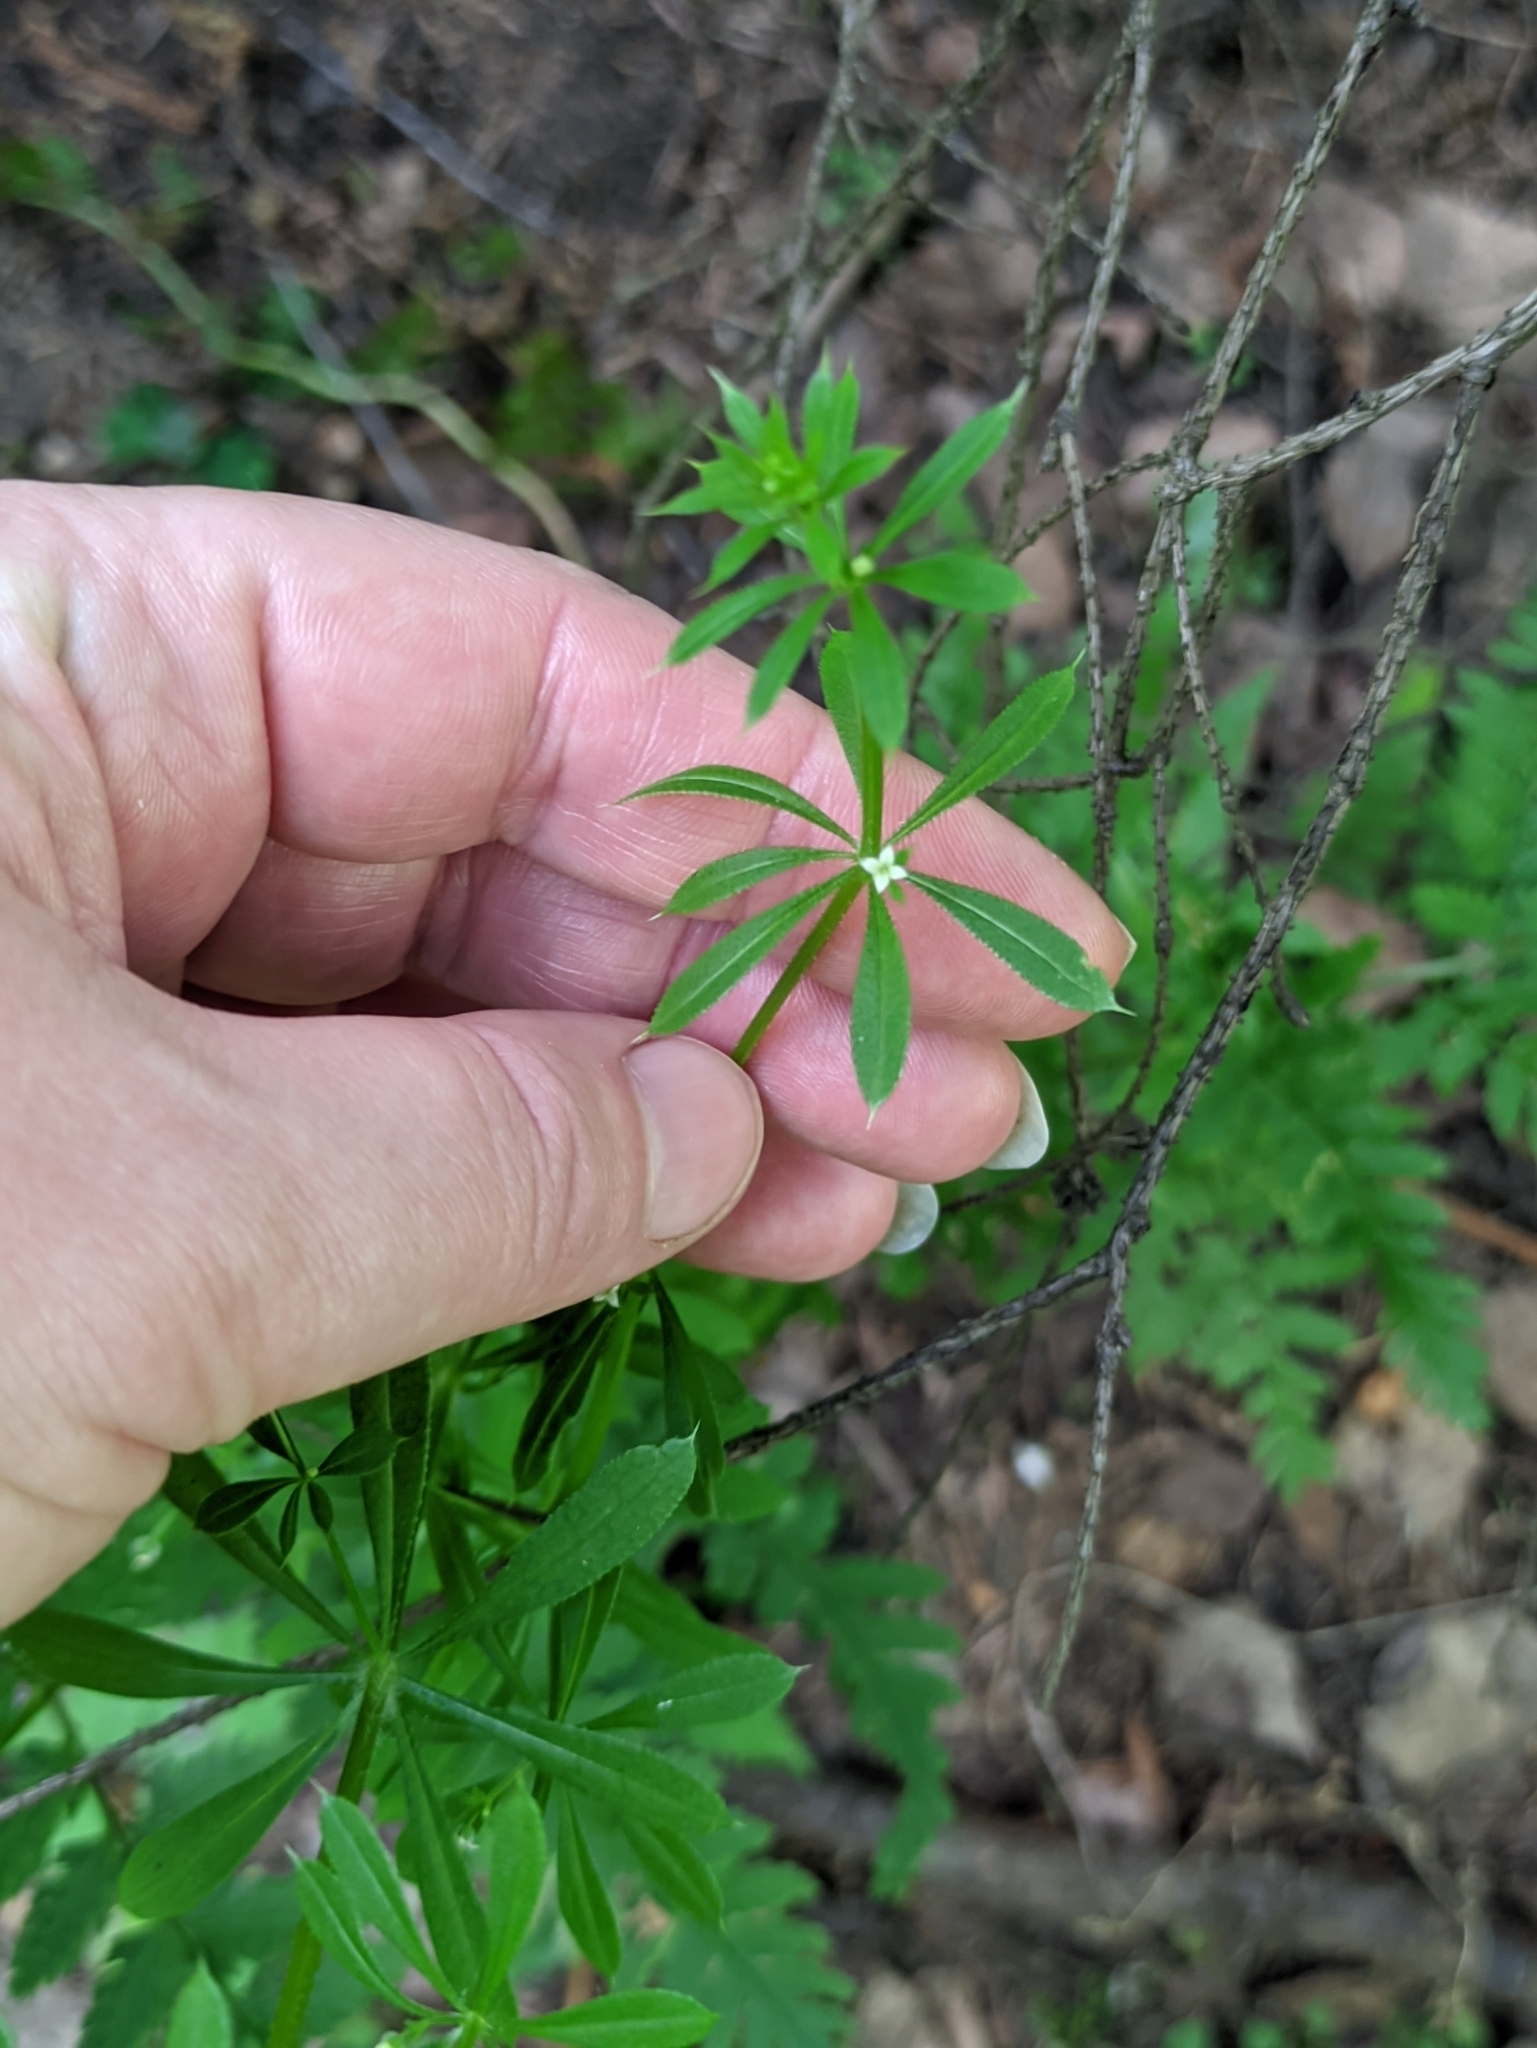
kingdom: Plantae
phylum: Tracheophyta
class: Magnoliopsida
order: Gentianales
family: Rubiaceae
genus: Galium
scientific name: Galium aparine
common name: Cleavers
